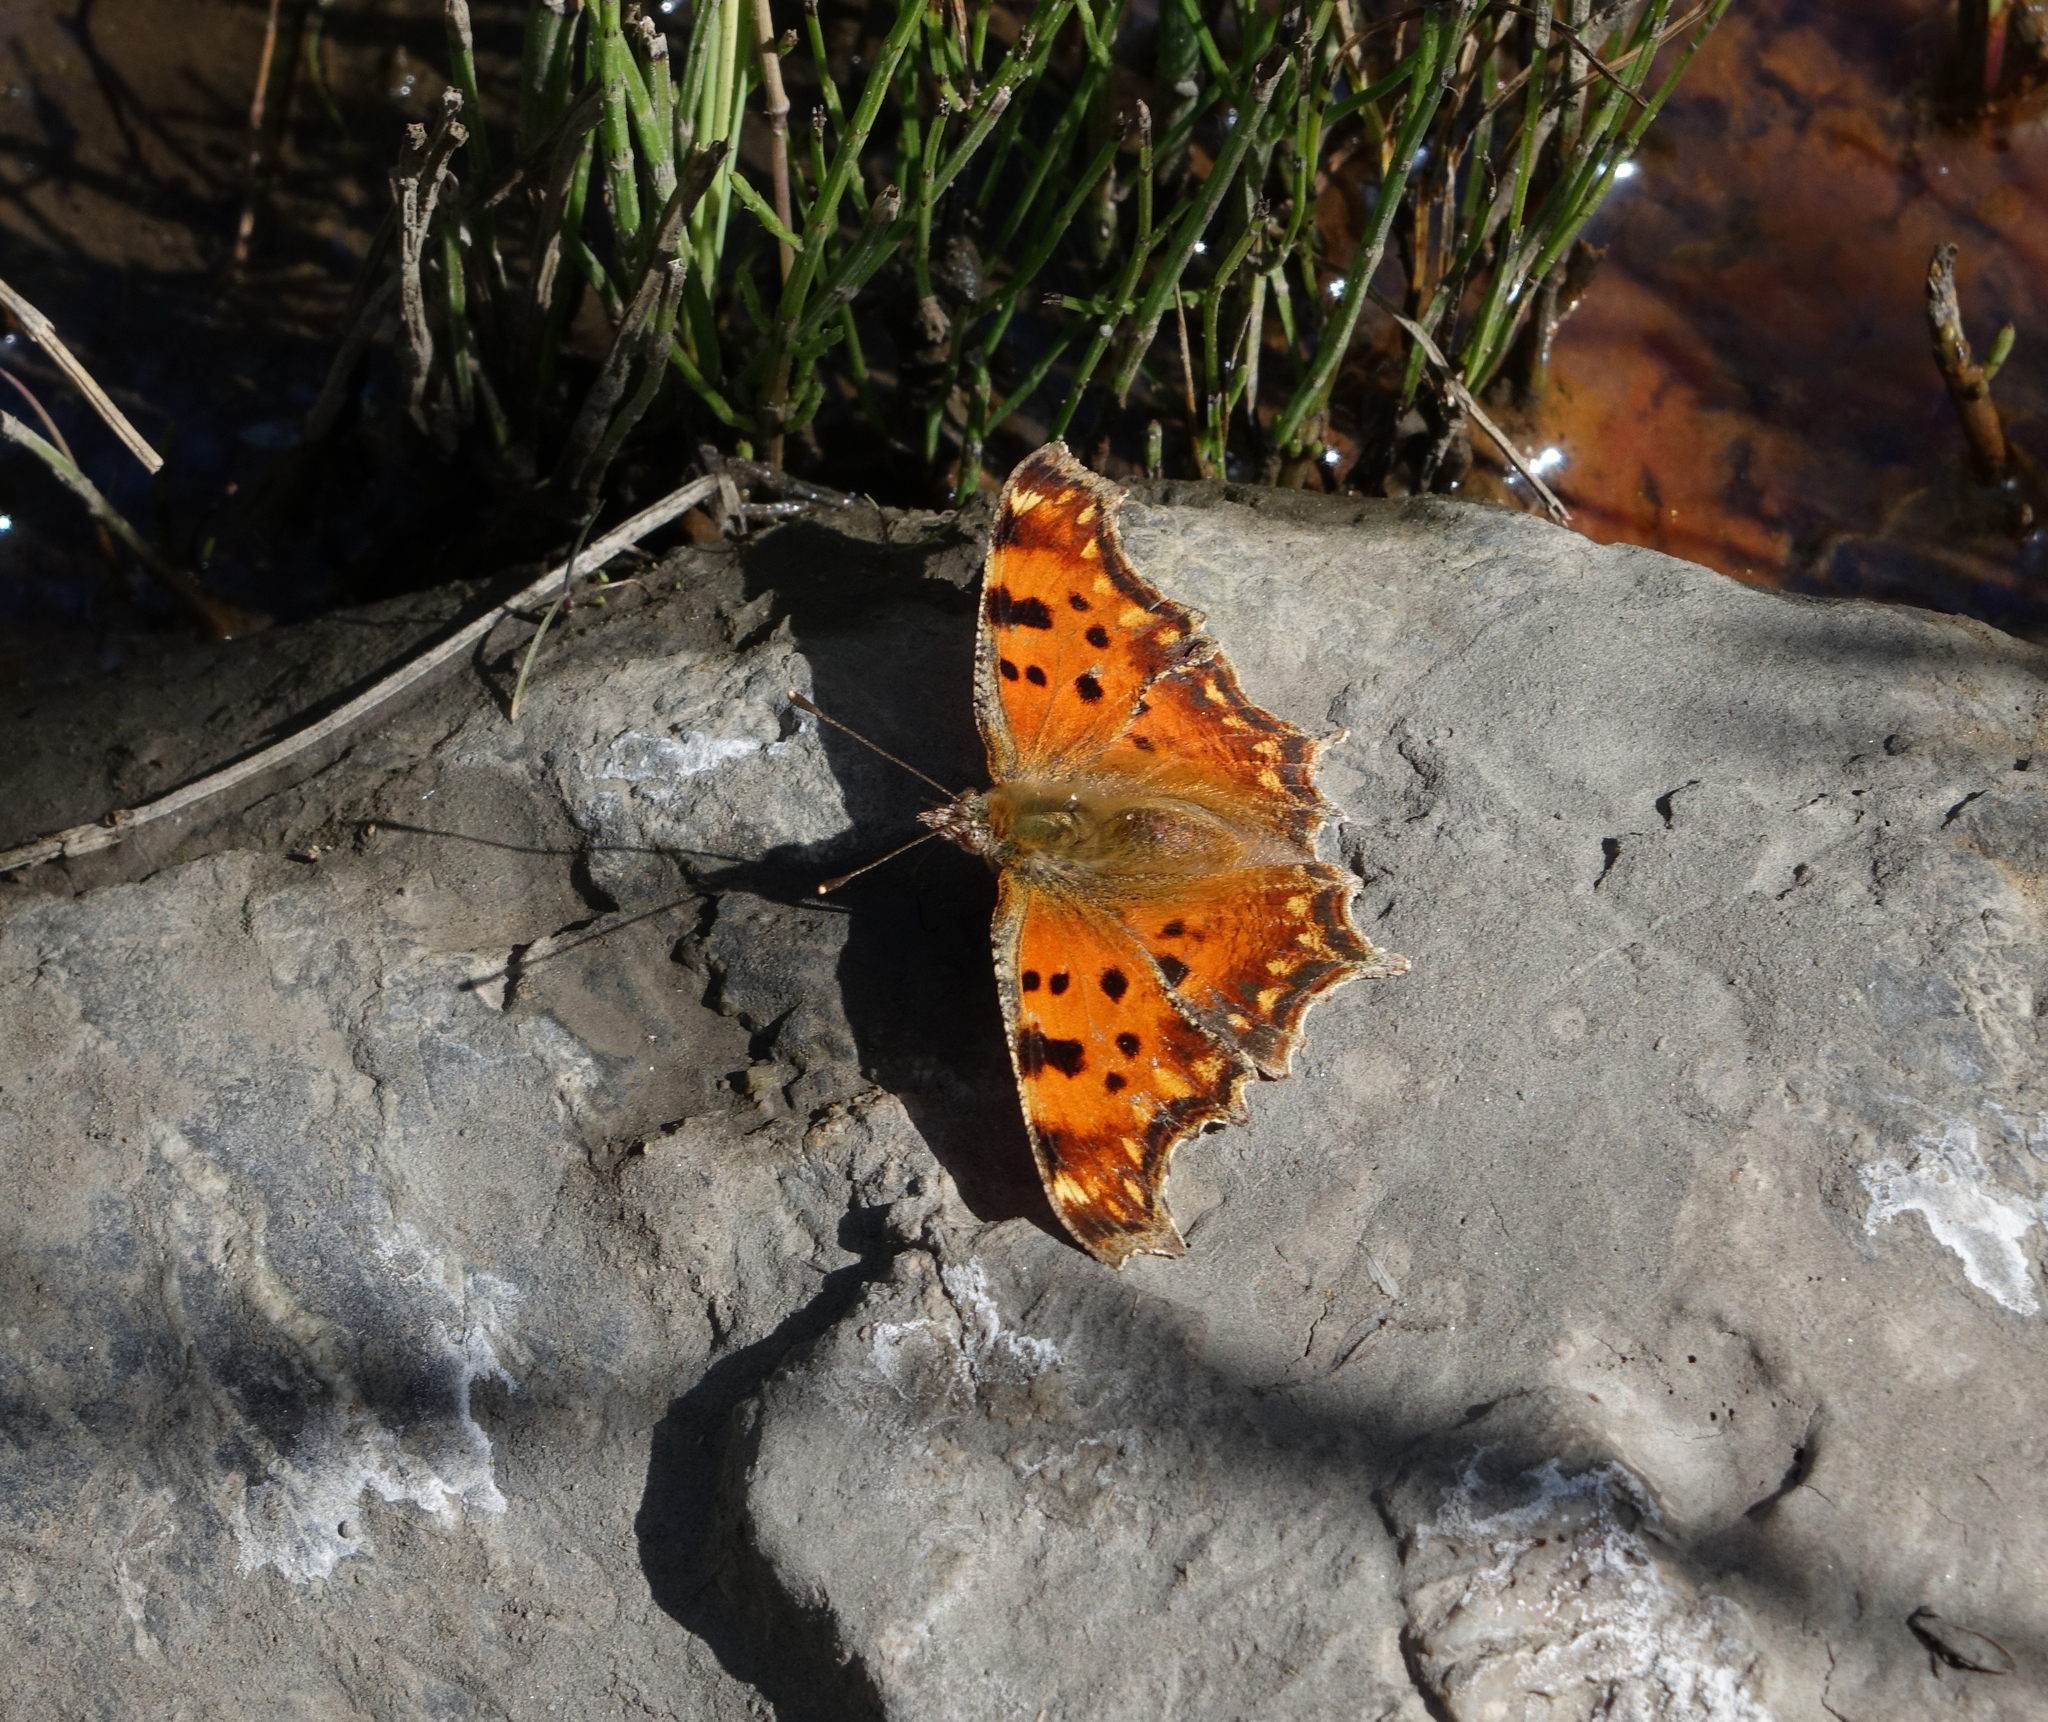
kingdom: Animalia
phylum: Arthropoda
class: Insecta
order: Lepidoptera
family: Nymphalidae
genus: Polygonia
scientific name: Polygonia egea
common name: Southern comma
